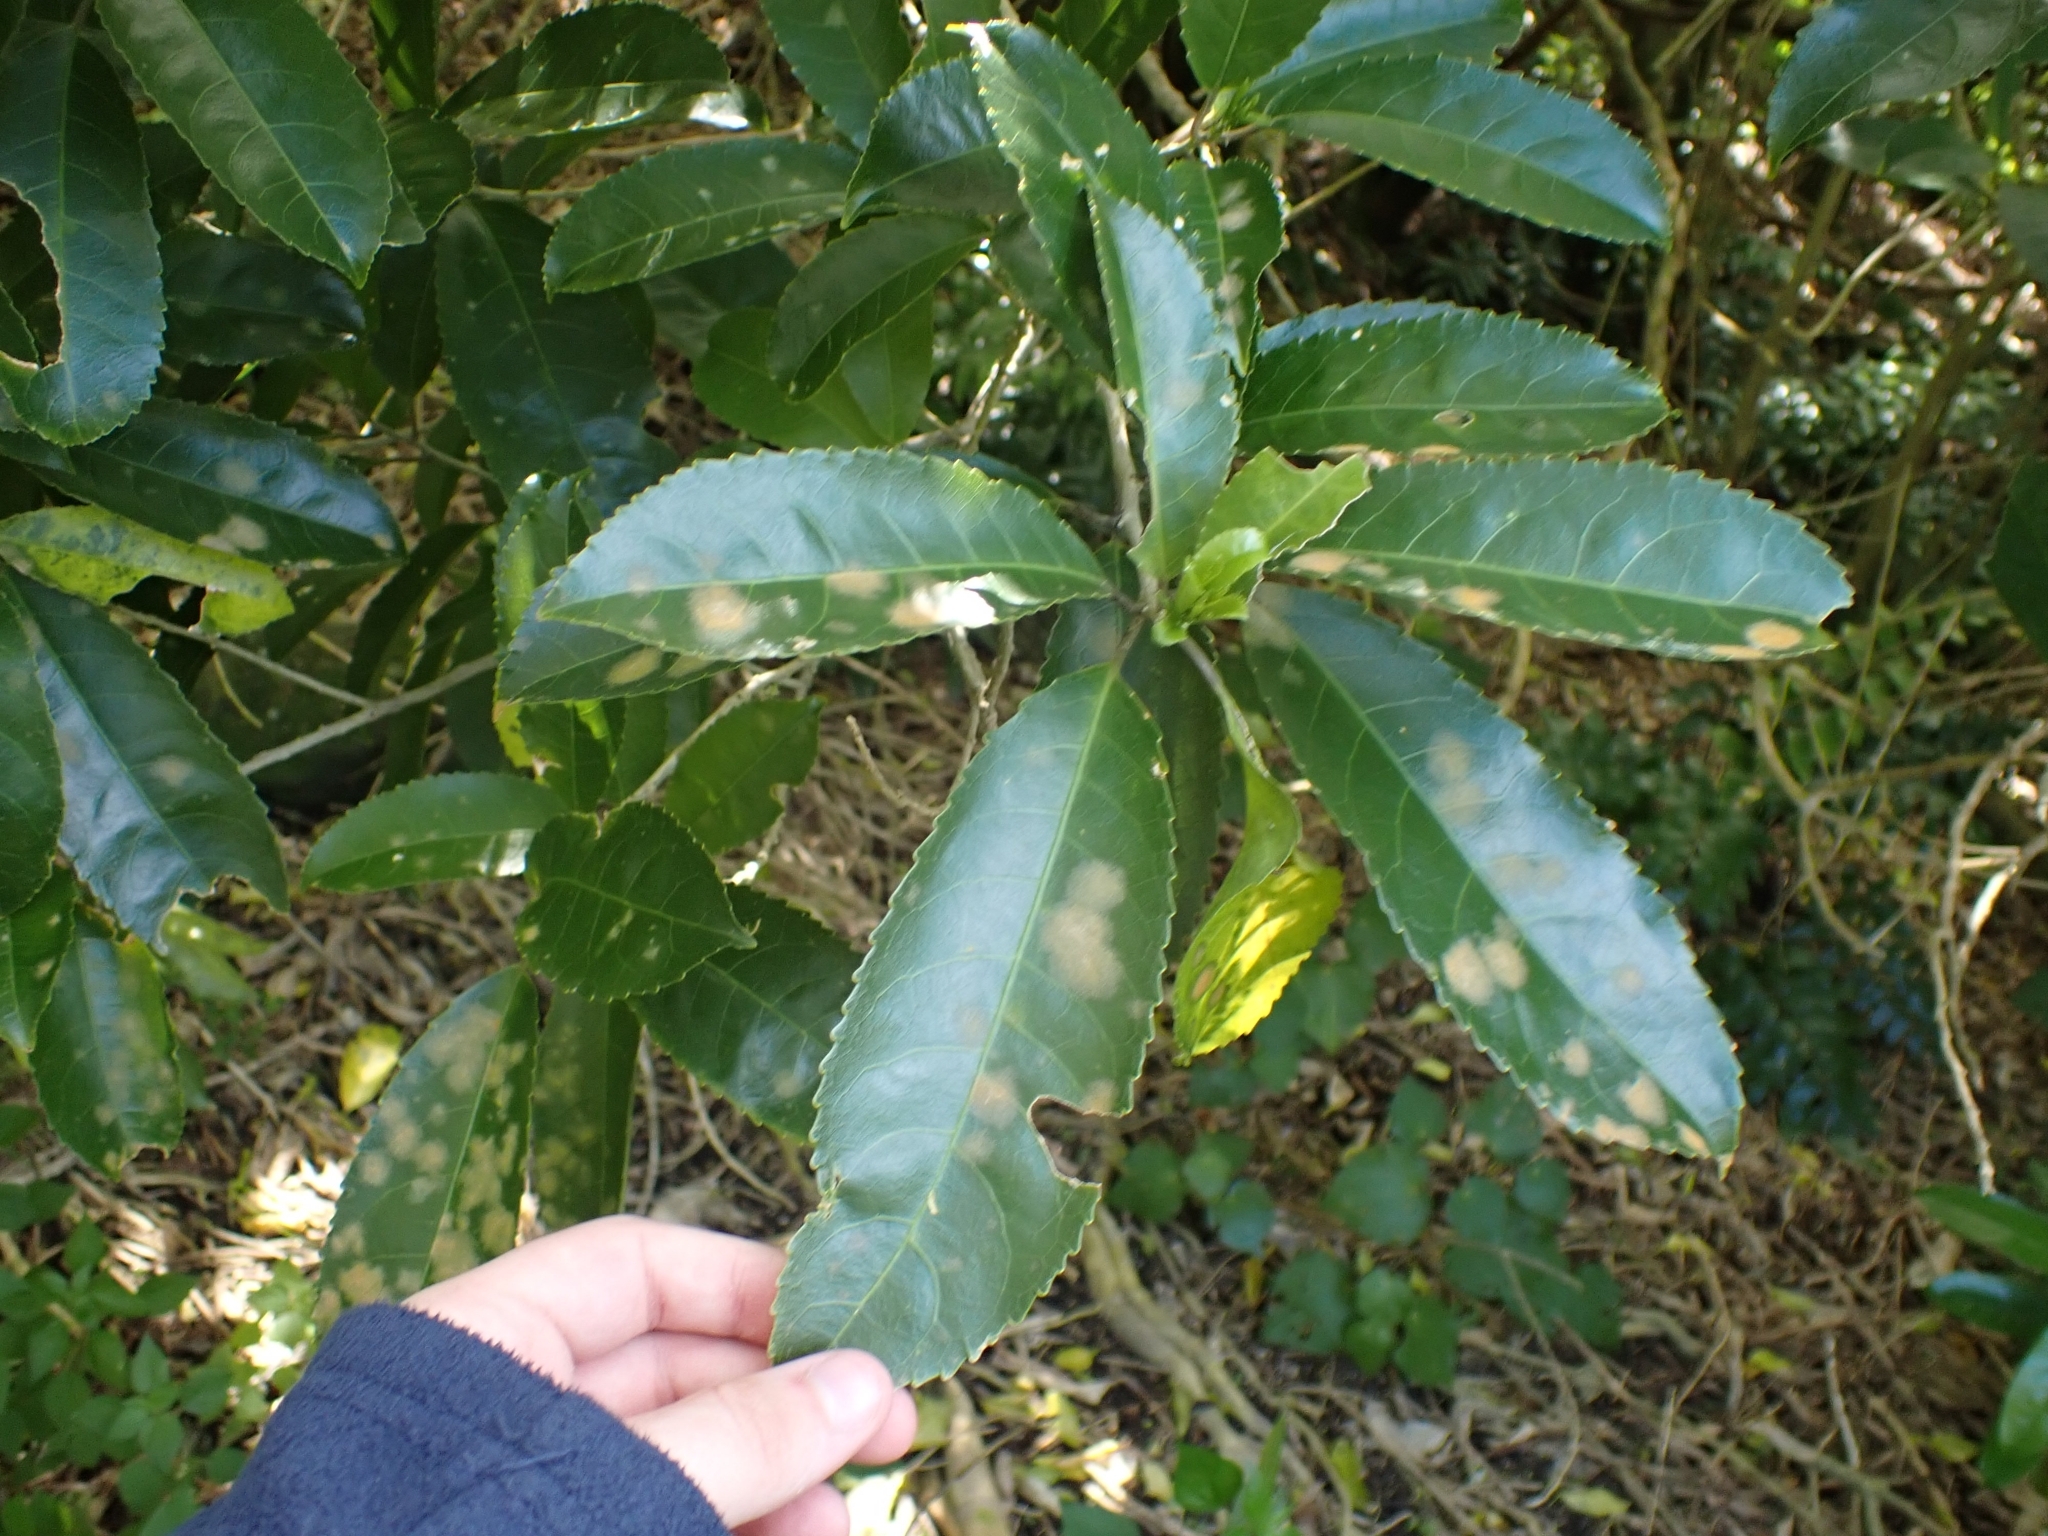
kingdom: Plantae
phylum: Tracheophyta
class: Magnoliopsida
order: Malpighiales
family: Violaceae
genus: Melicytus
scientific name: Melicytus ramiflorus
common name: Mahoe
